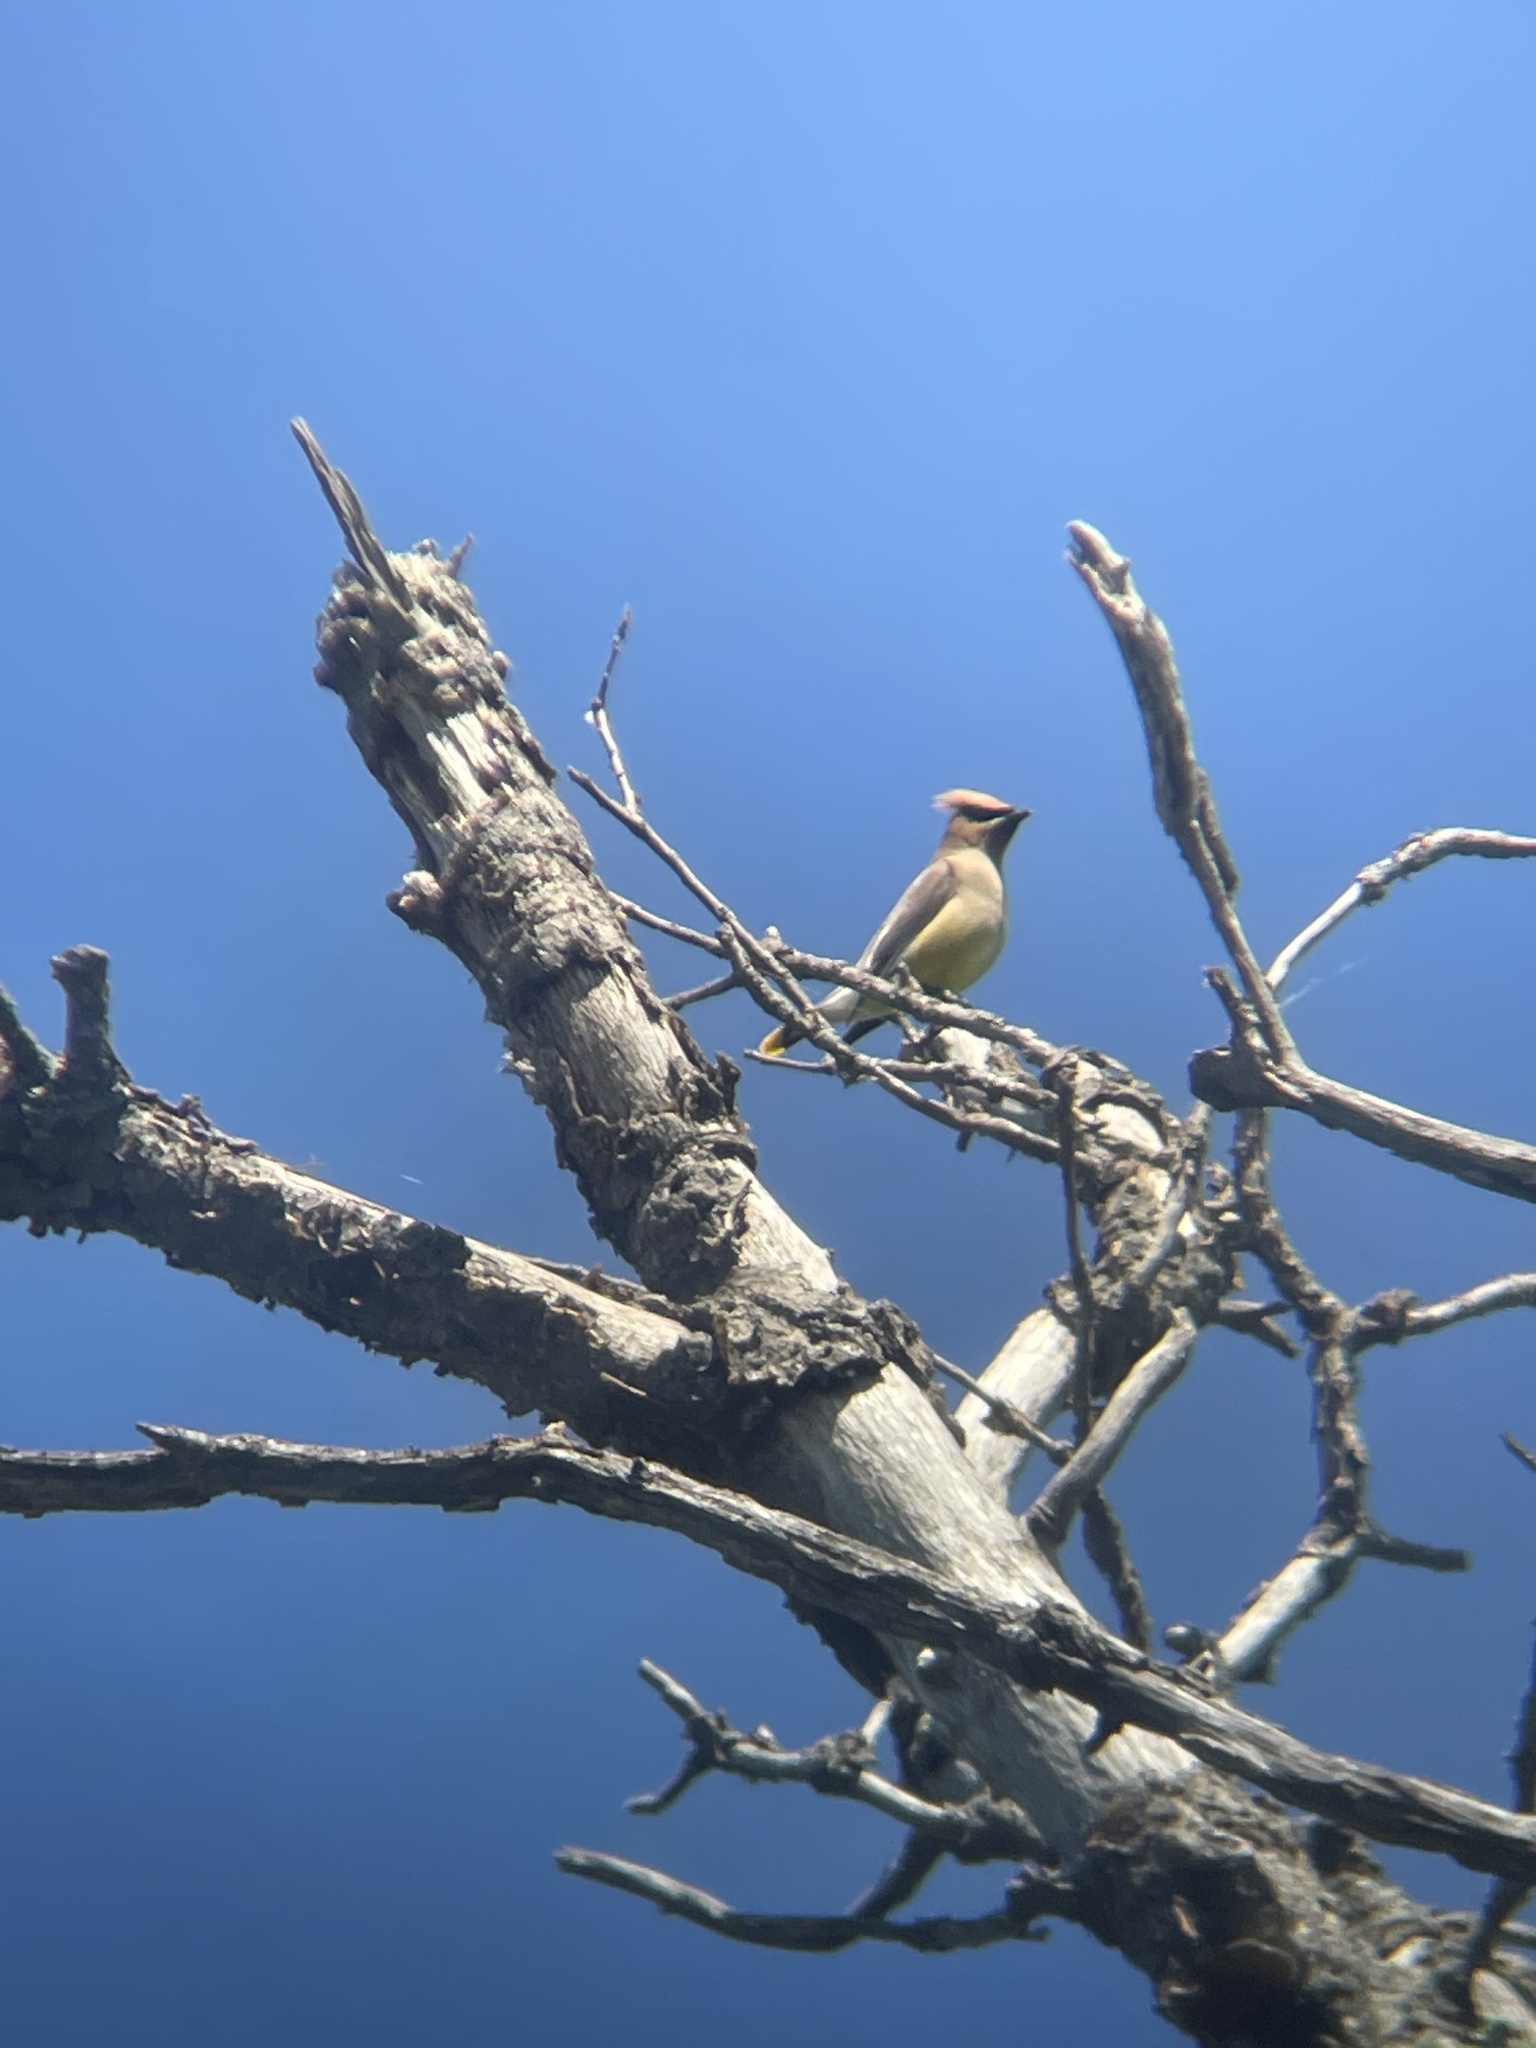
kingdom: Animalia
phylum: Chordata
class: Aves
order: Passeriformes
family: Bombycillidae
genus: Bombycilla
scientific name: Bombycilla cedrorum
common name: Cedar waxwing
